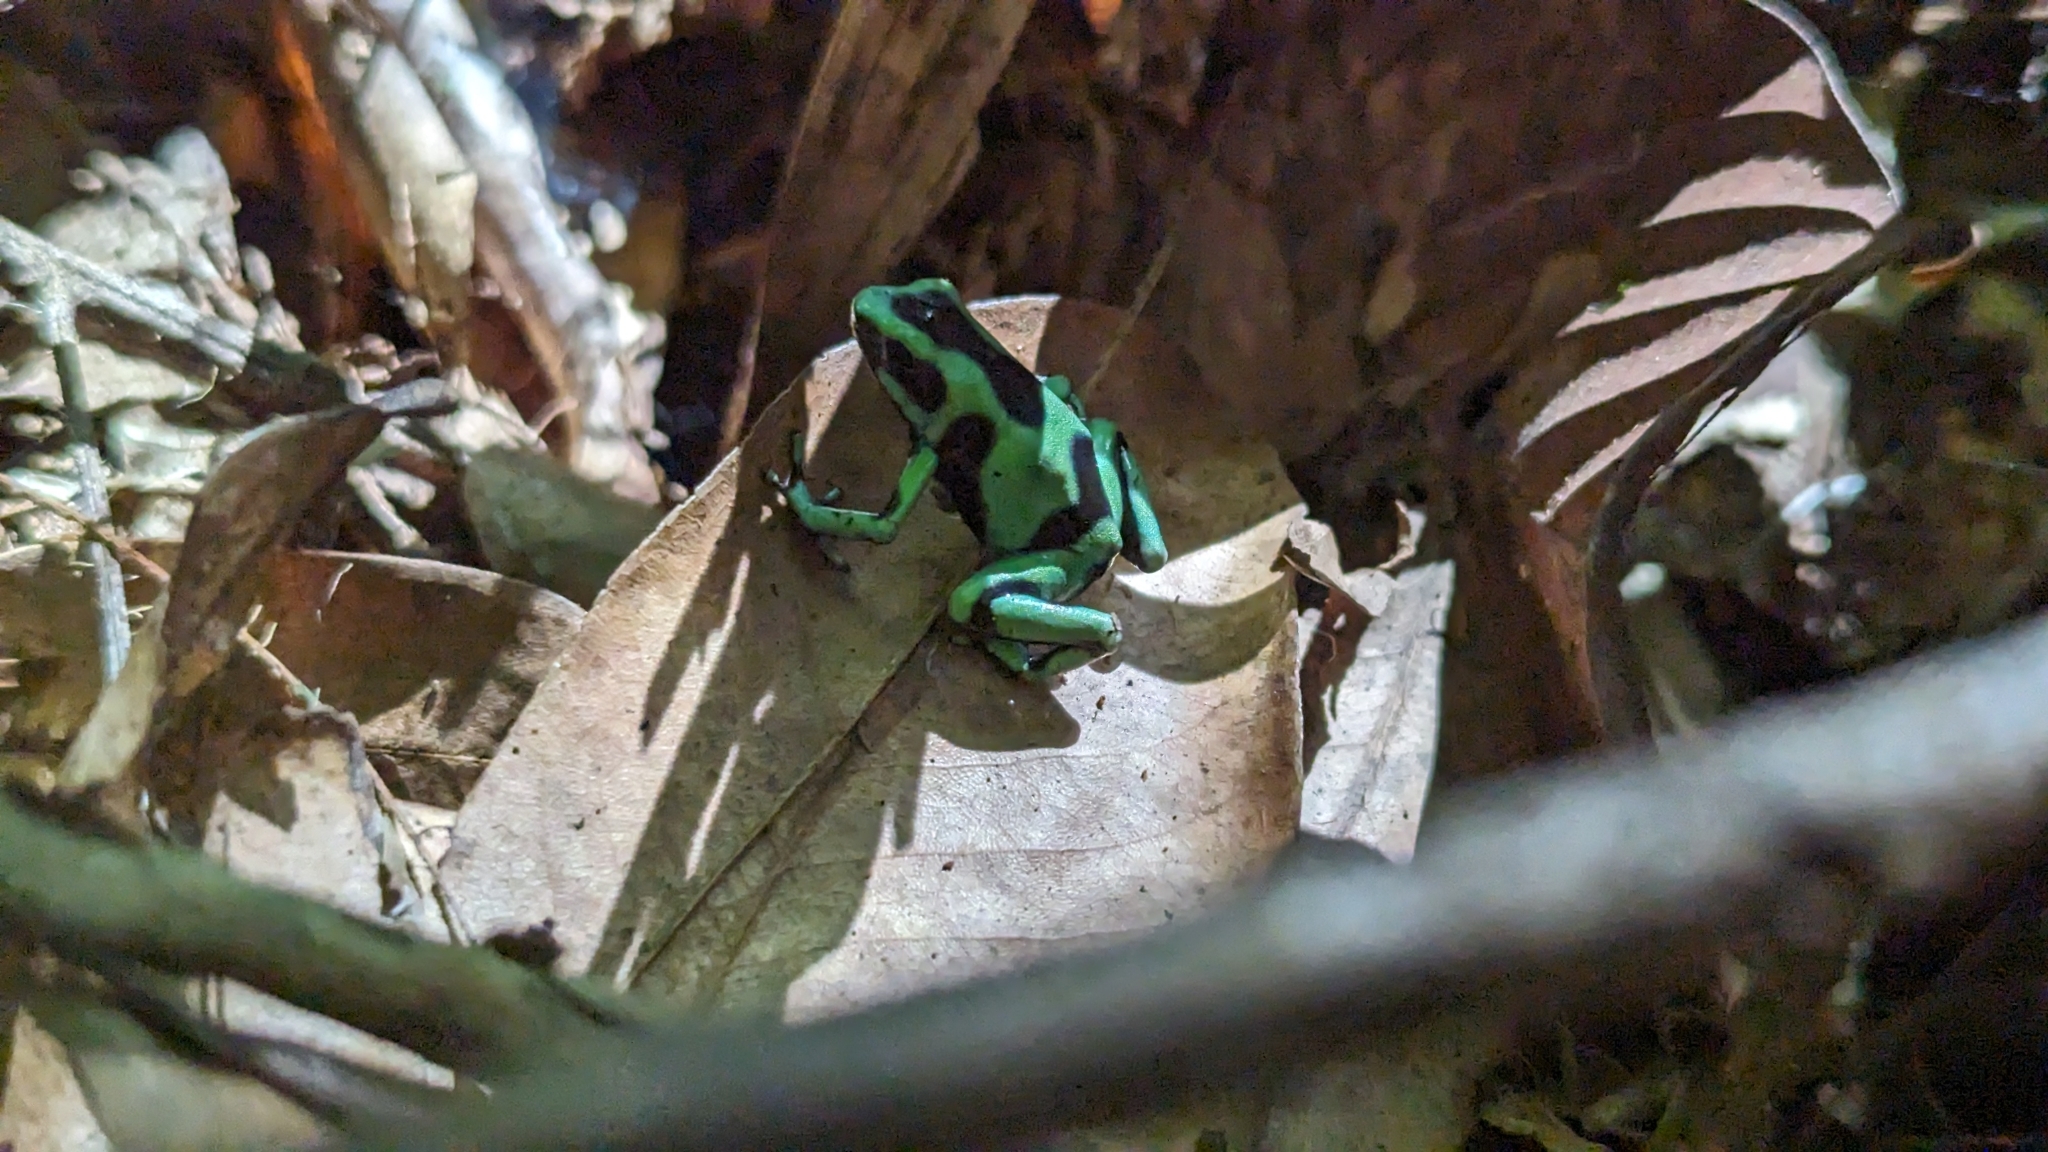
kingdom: Animalia
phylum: Chordata
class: Amphibia
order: Anura
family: Dendrobatidae
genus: Dendrobates
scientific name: Dendrobates auratus
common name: Green and black poison dart frog
